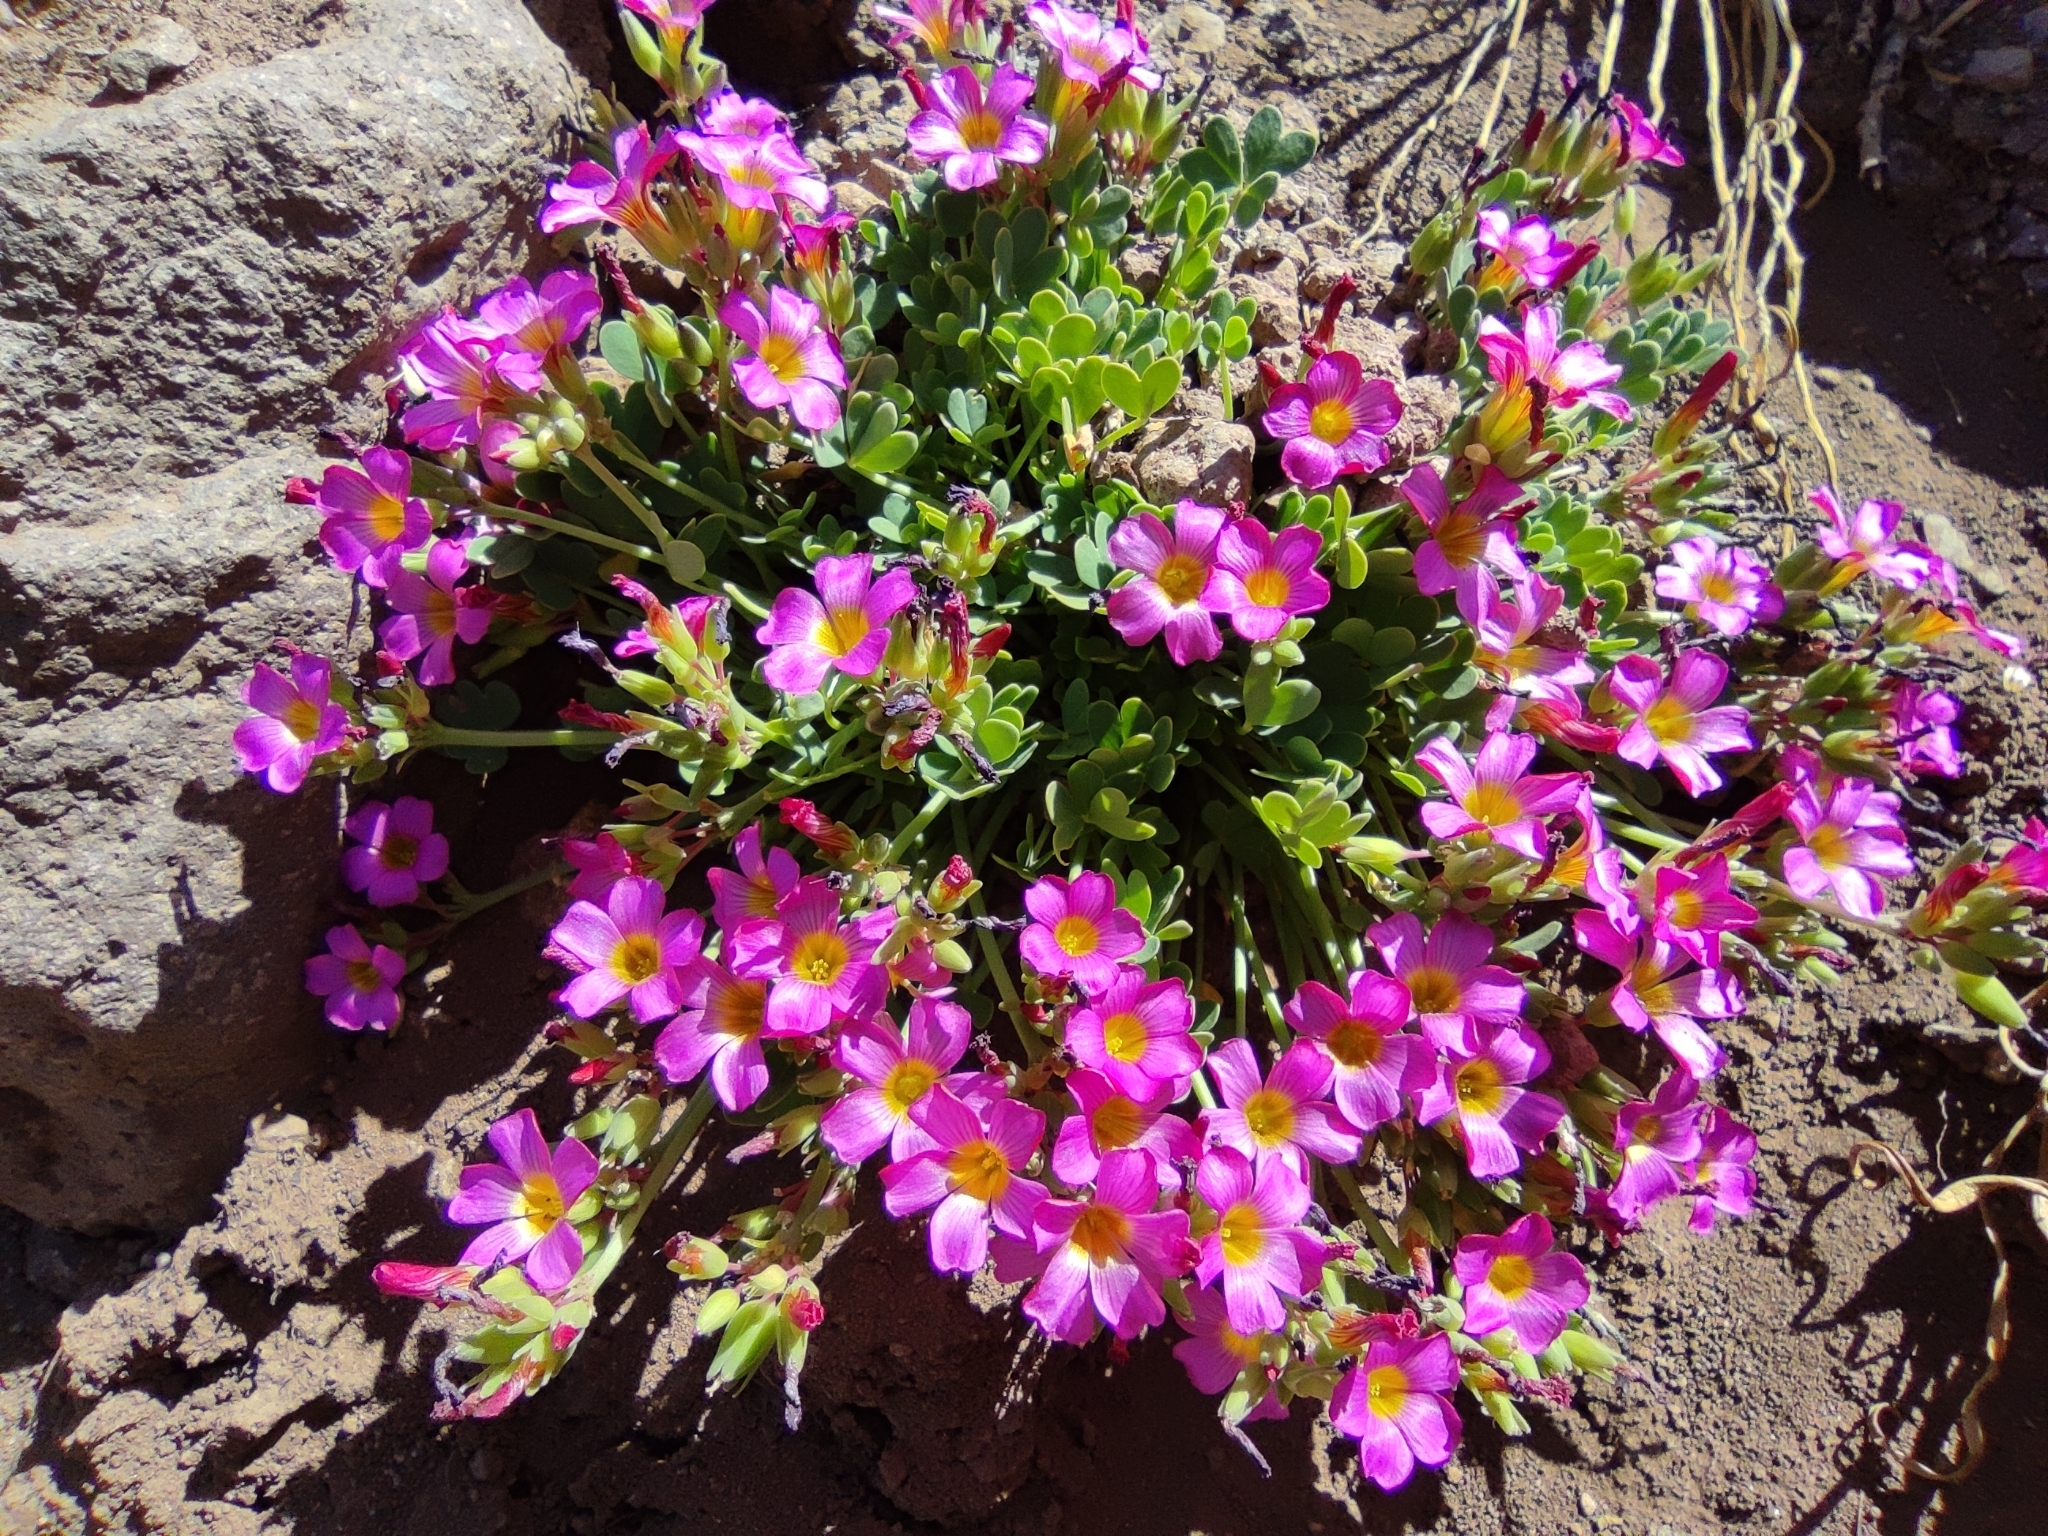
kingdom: Plantae
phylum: Tracheophyta
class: Magnoliopsida
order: Oxalidales
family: Oxalidaceae
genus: Oxalis
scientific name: Oxalis squamata
